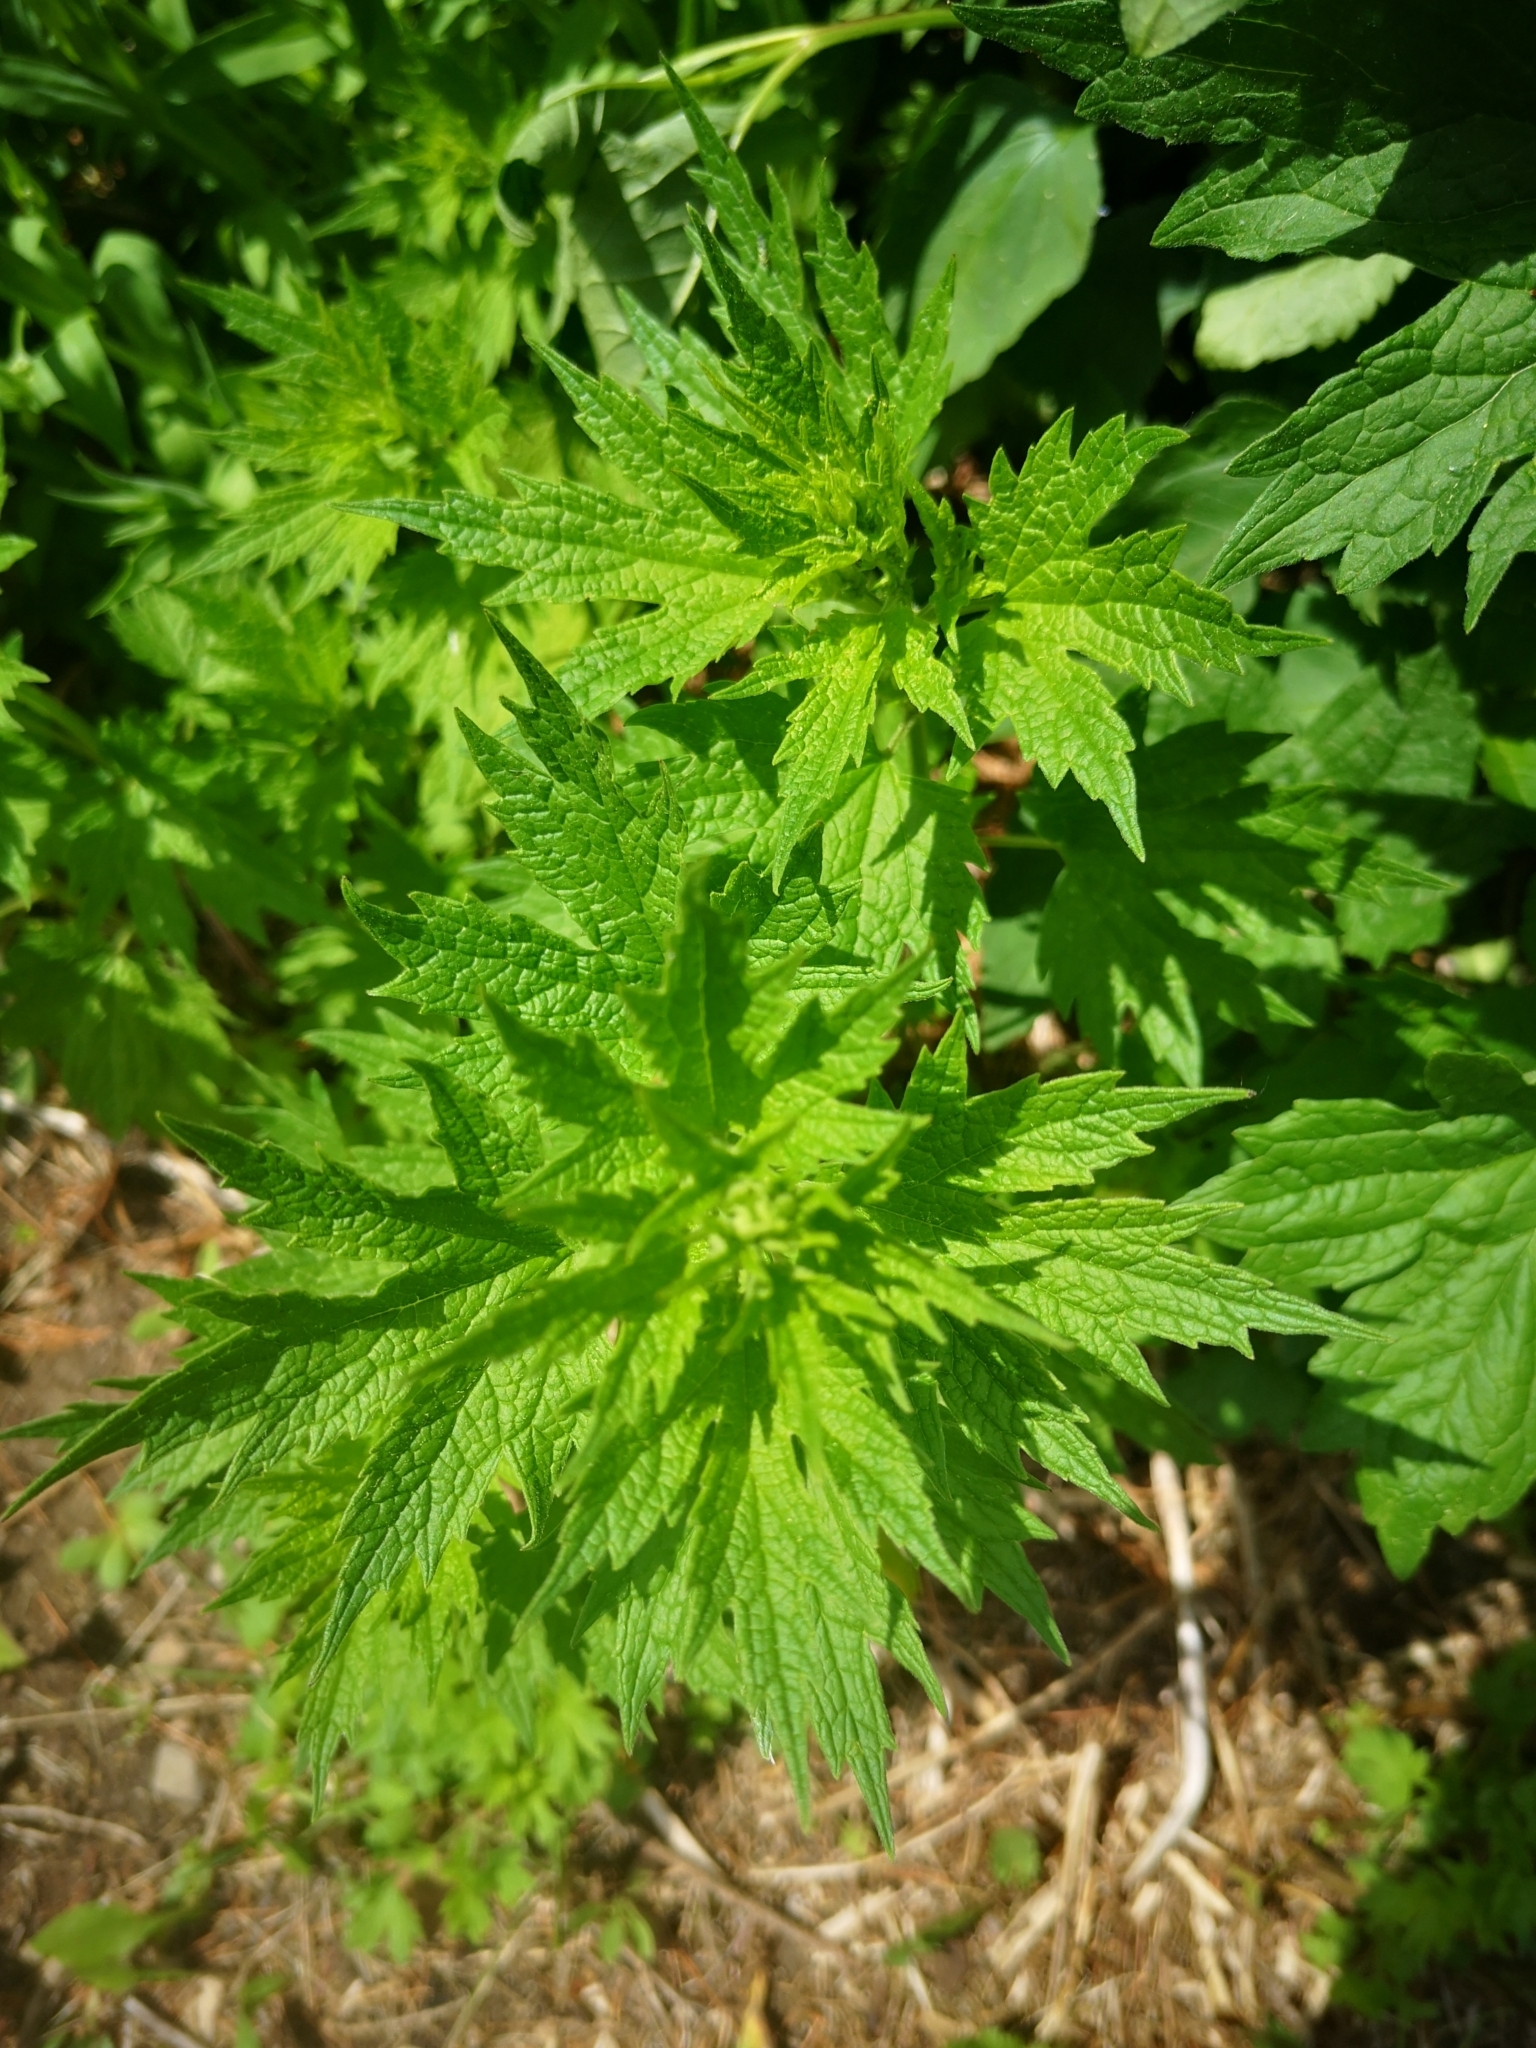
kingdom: Plantae
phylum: Tracheophyta
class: Magnoliopsida
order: Lamiales
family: Lamiaceae
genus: Leonurus
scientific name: Leonurus cardiaca
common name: Motherwort
